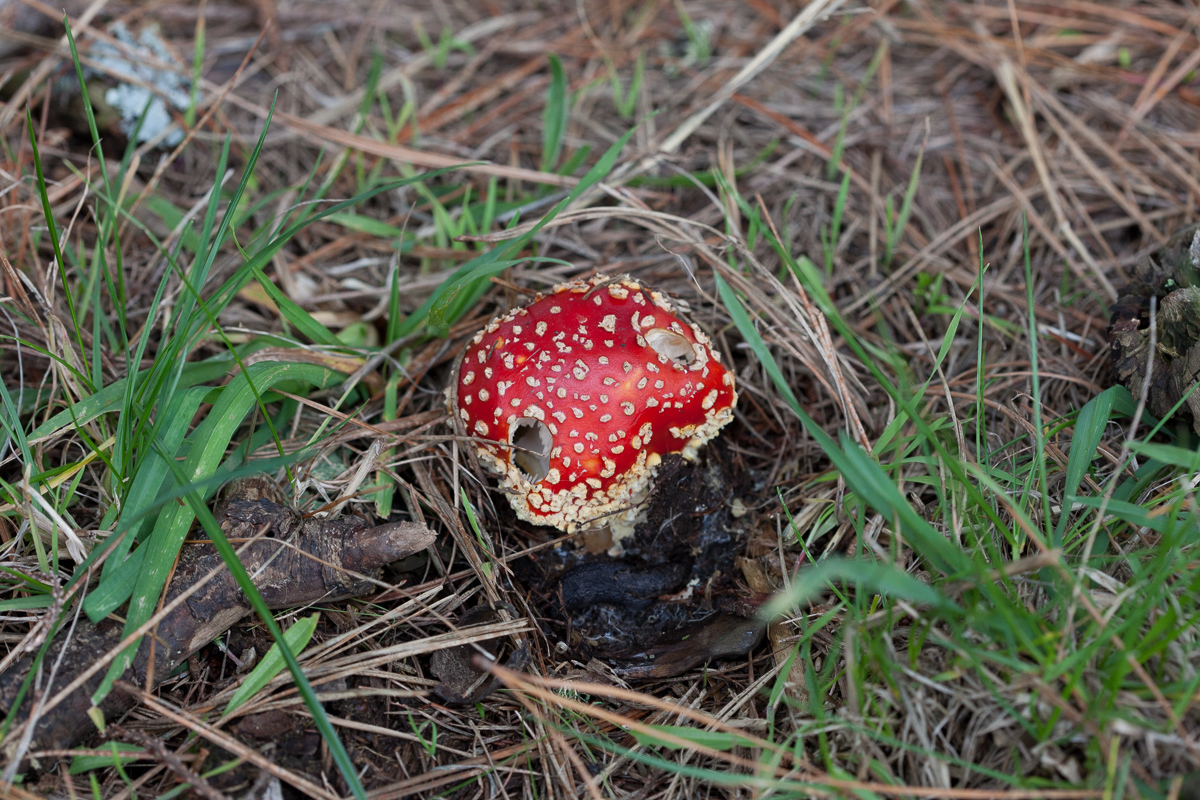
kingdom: Fungi
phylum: Basidiomycota
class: Agaricomycetes
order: Agaricales
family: Amanitaceae
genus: Amanita
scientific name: Amanita muscaria
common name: Fly agaric
